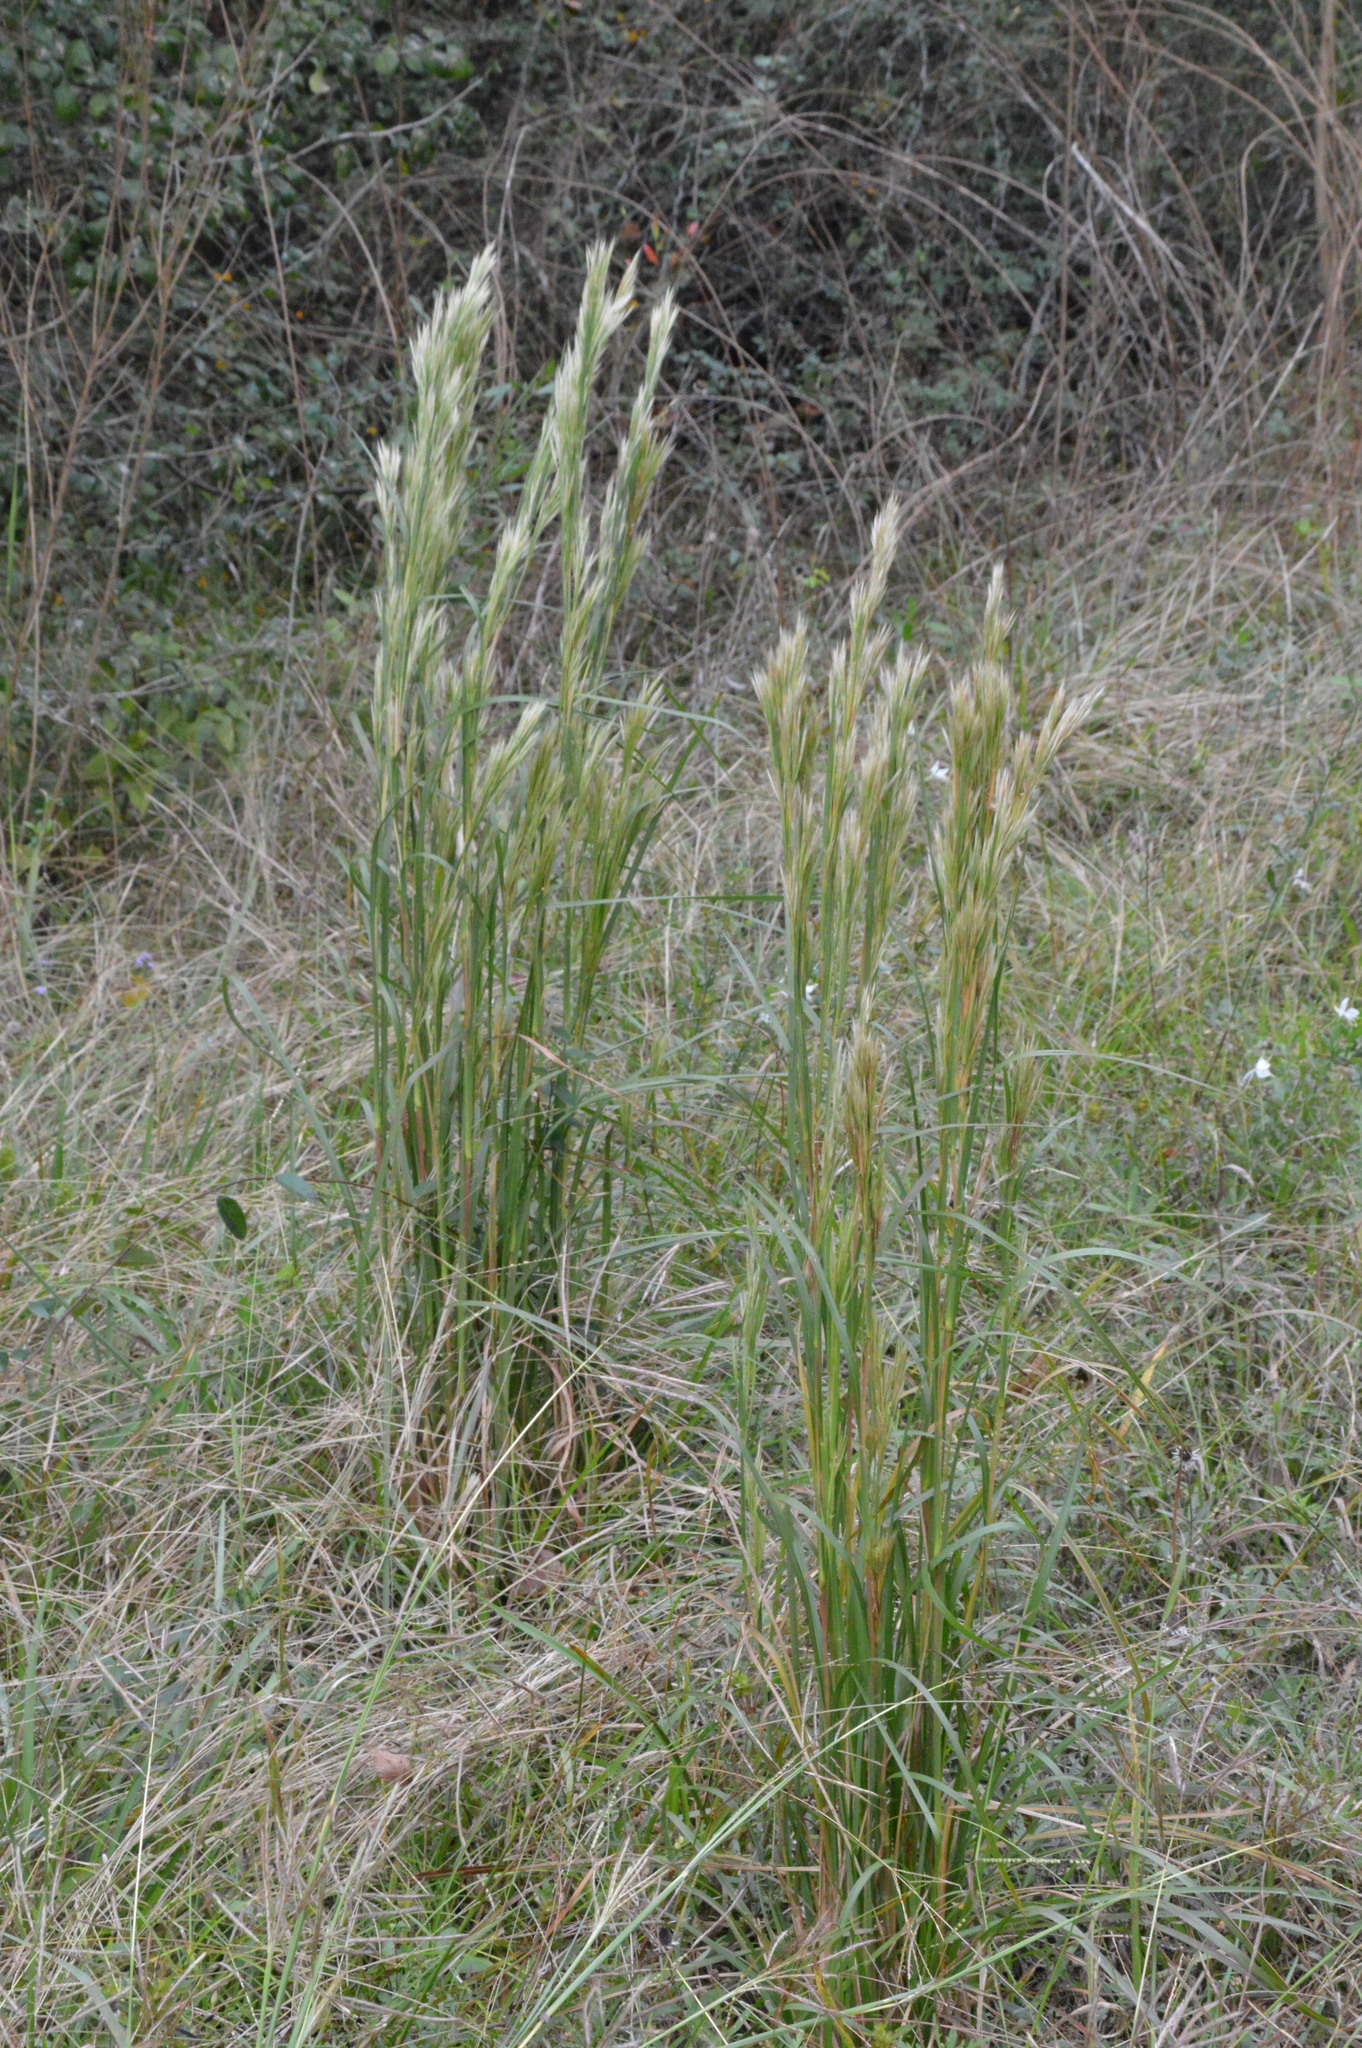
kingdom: Plantae
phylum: Tracheophyta
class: Liliopsida
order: Poales
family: Poaceae
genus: Andropogon
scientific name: Andropogon tenuispatheus
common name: Bushy bluestem
